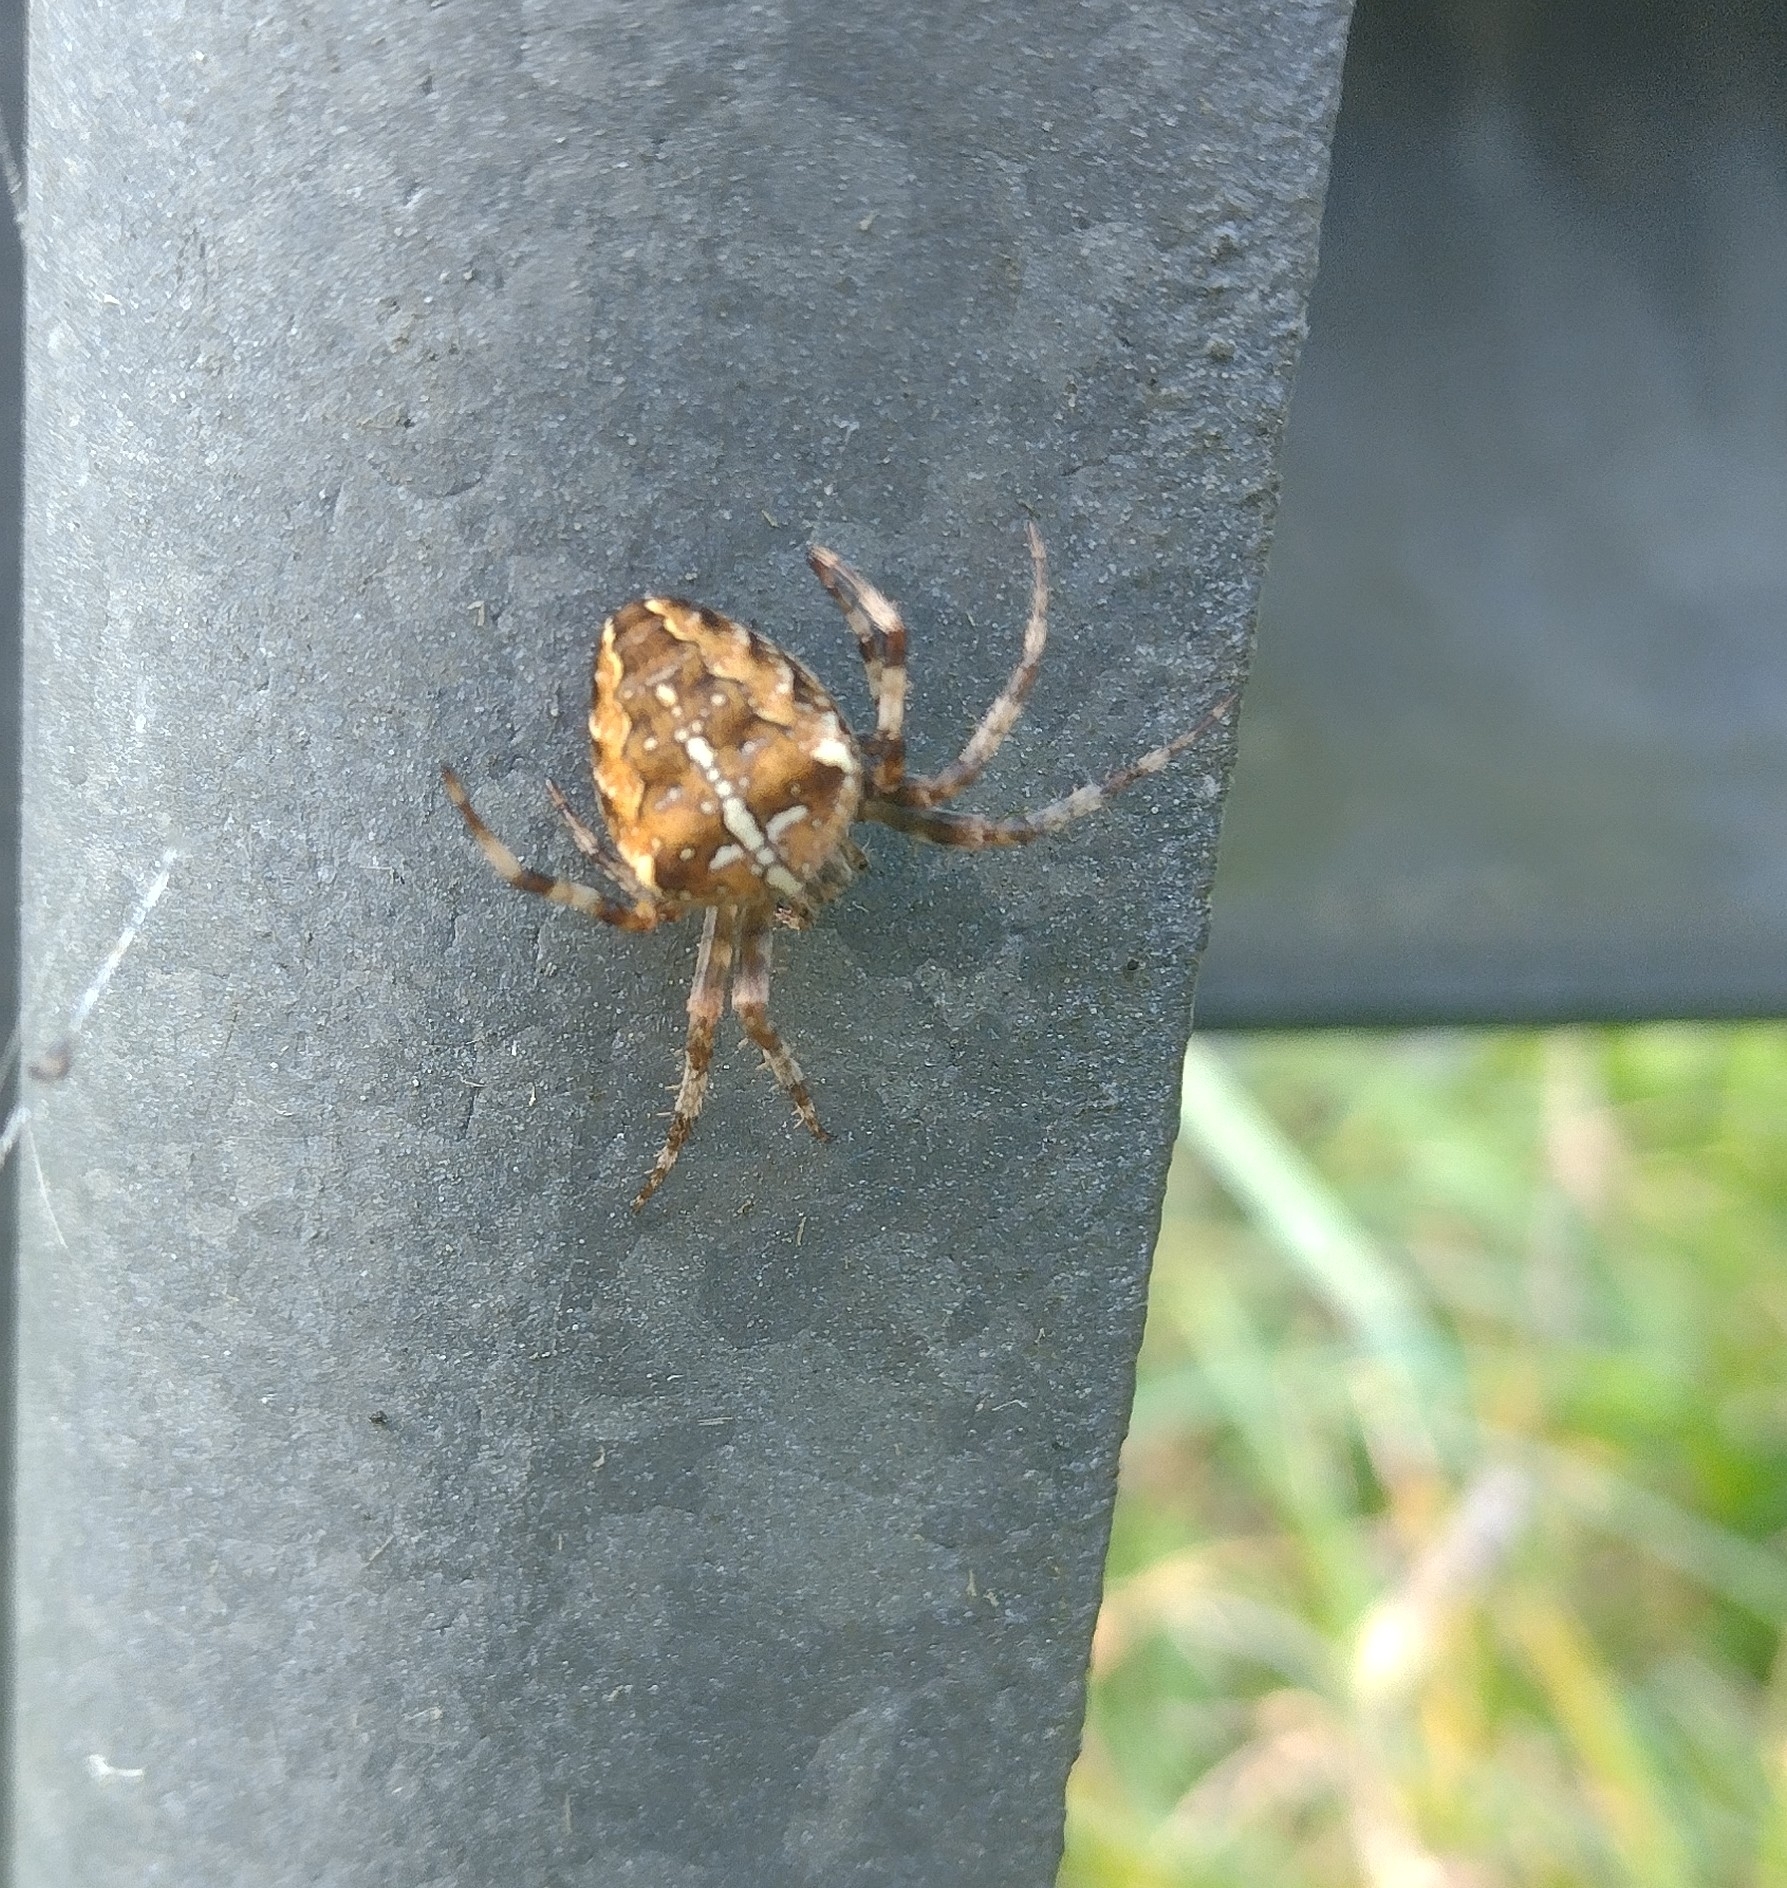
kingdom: Animalia
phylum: Arthropoda
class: Arachnida
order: Araneae
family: Araneidae
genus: Araneus
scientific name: Araneus diadematus
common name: Cross orbweaver
